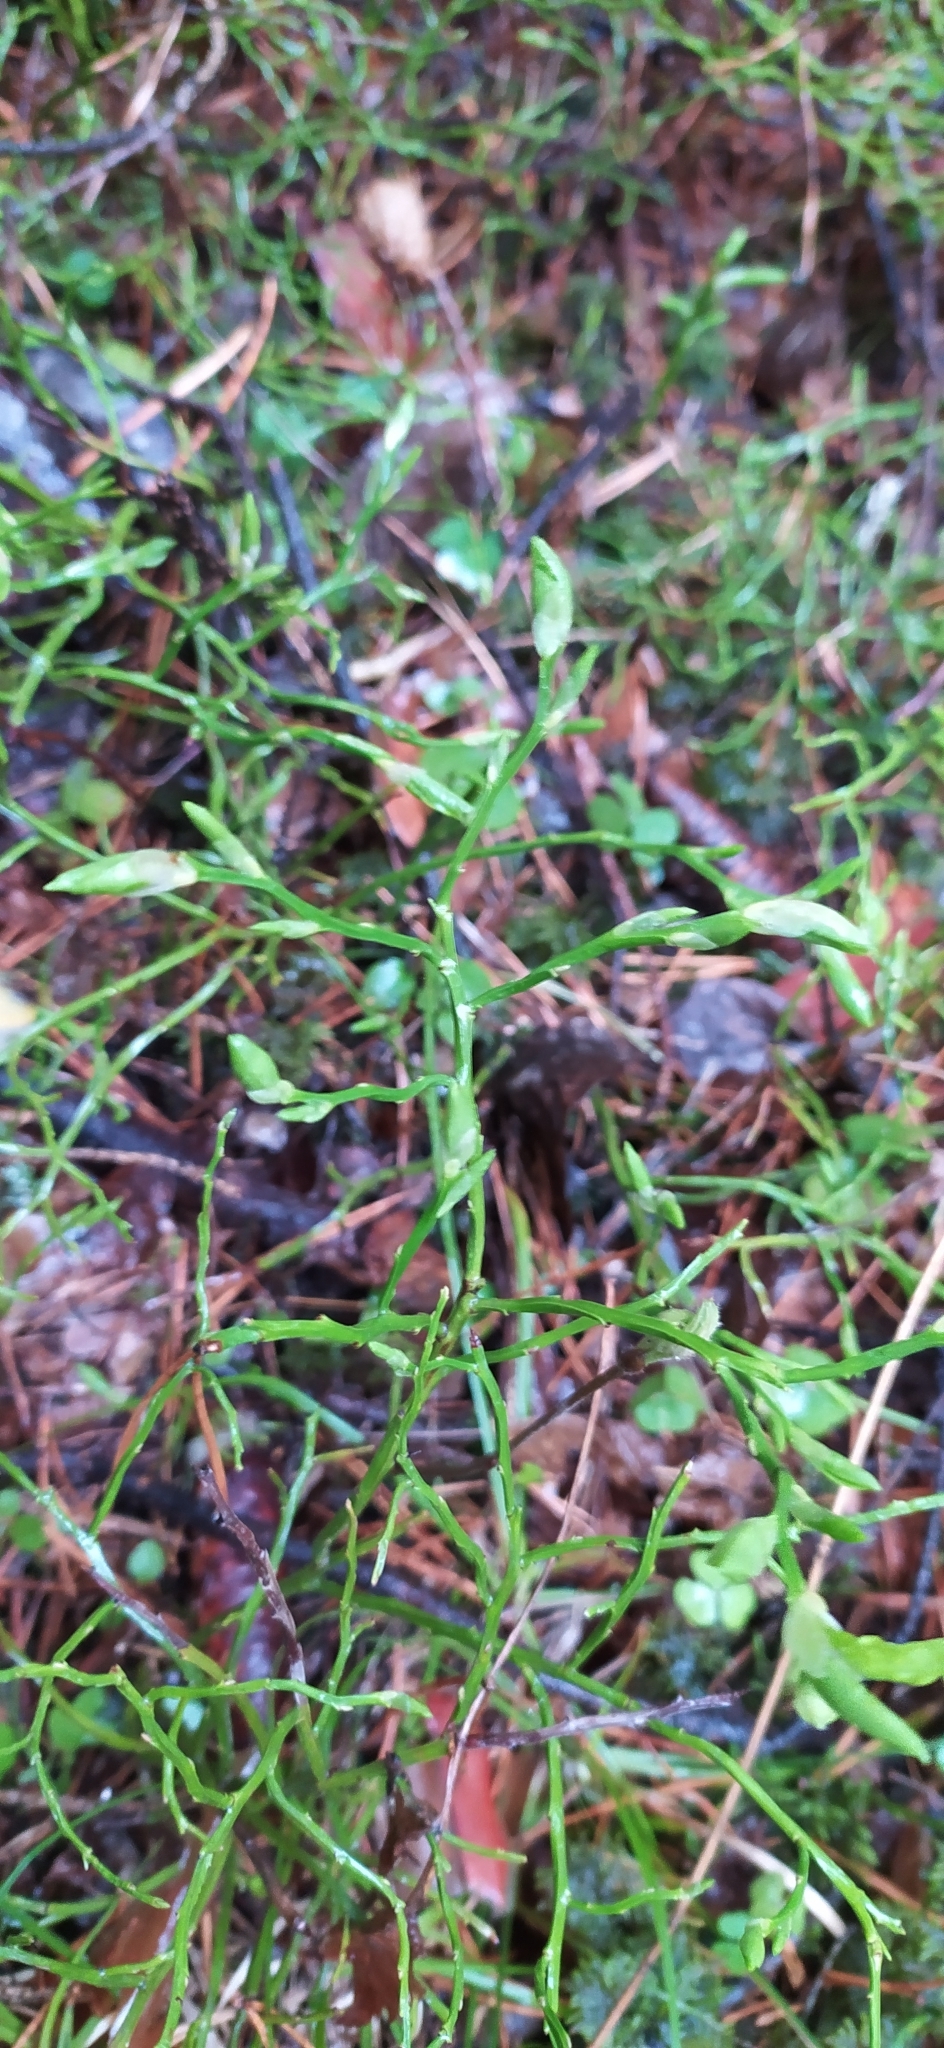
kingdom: Plantae
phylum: Tracheophyta
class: Magnoliopsida
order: Ericales
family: Ericaceae
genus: Vaccinium
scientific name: Vaccinium myrtillus
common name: Bilberry
